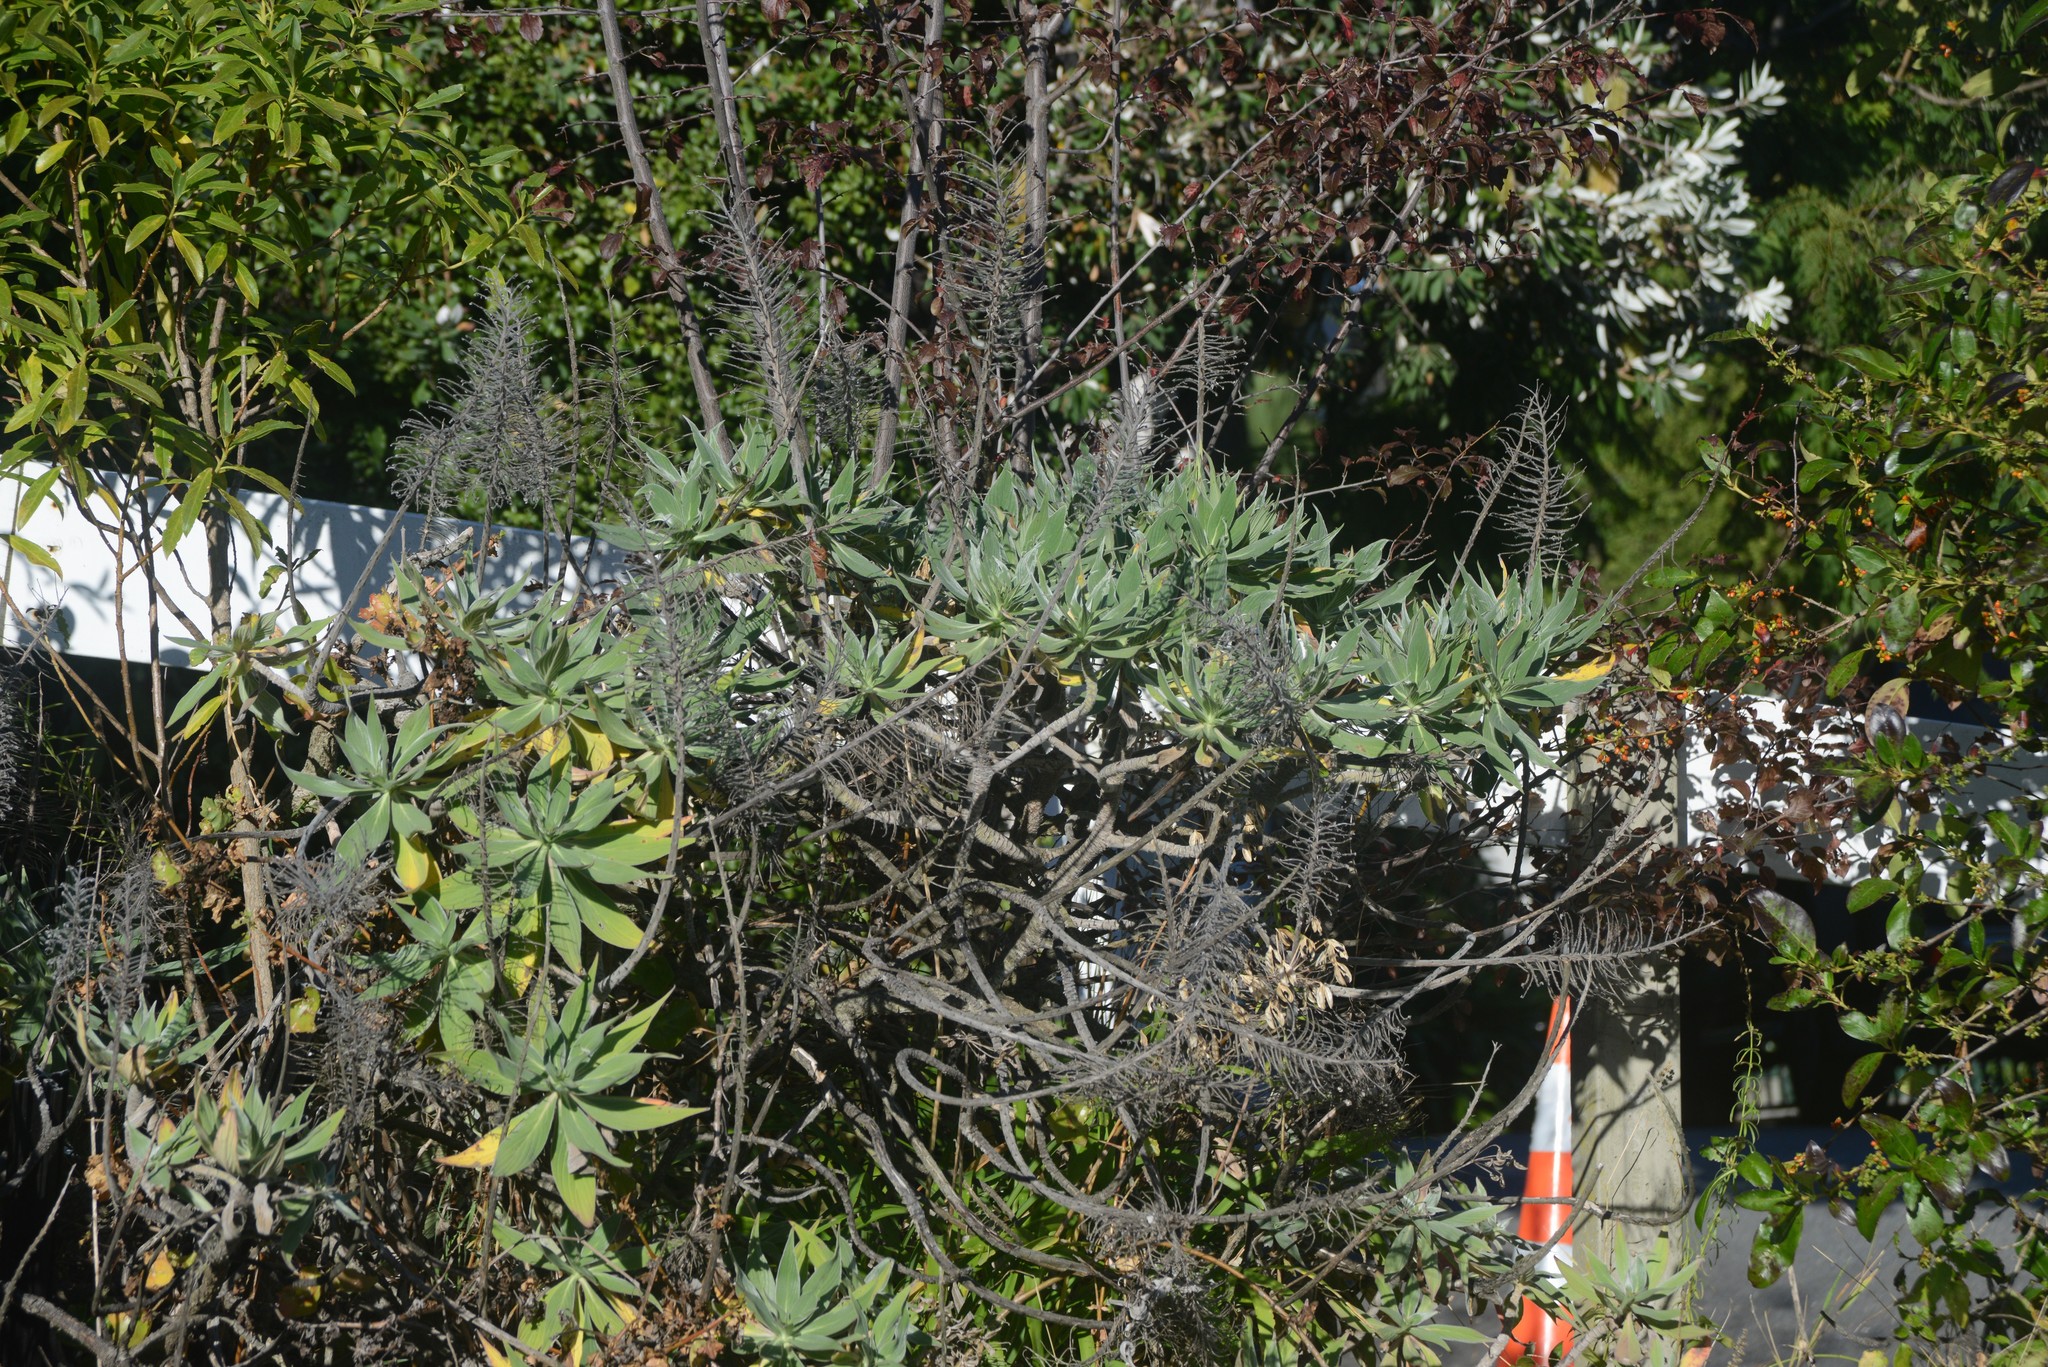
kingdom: Plantae
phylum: Tracheophyta
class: Magnoliopsida
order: Boraginales
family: Boraginaceae
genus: Echium
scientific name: Echium candicans
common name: Pride of madeira
